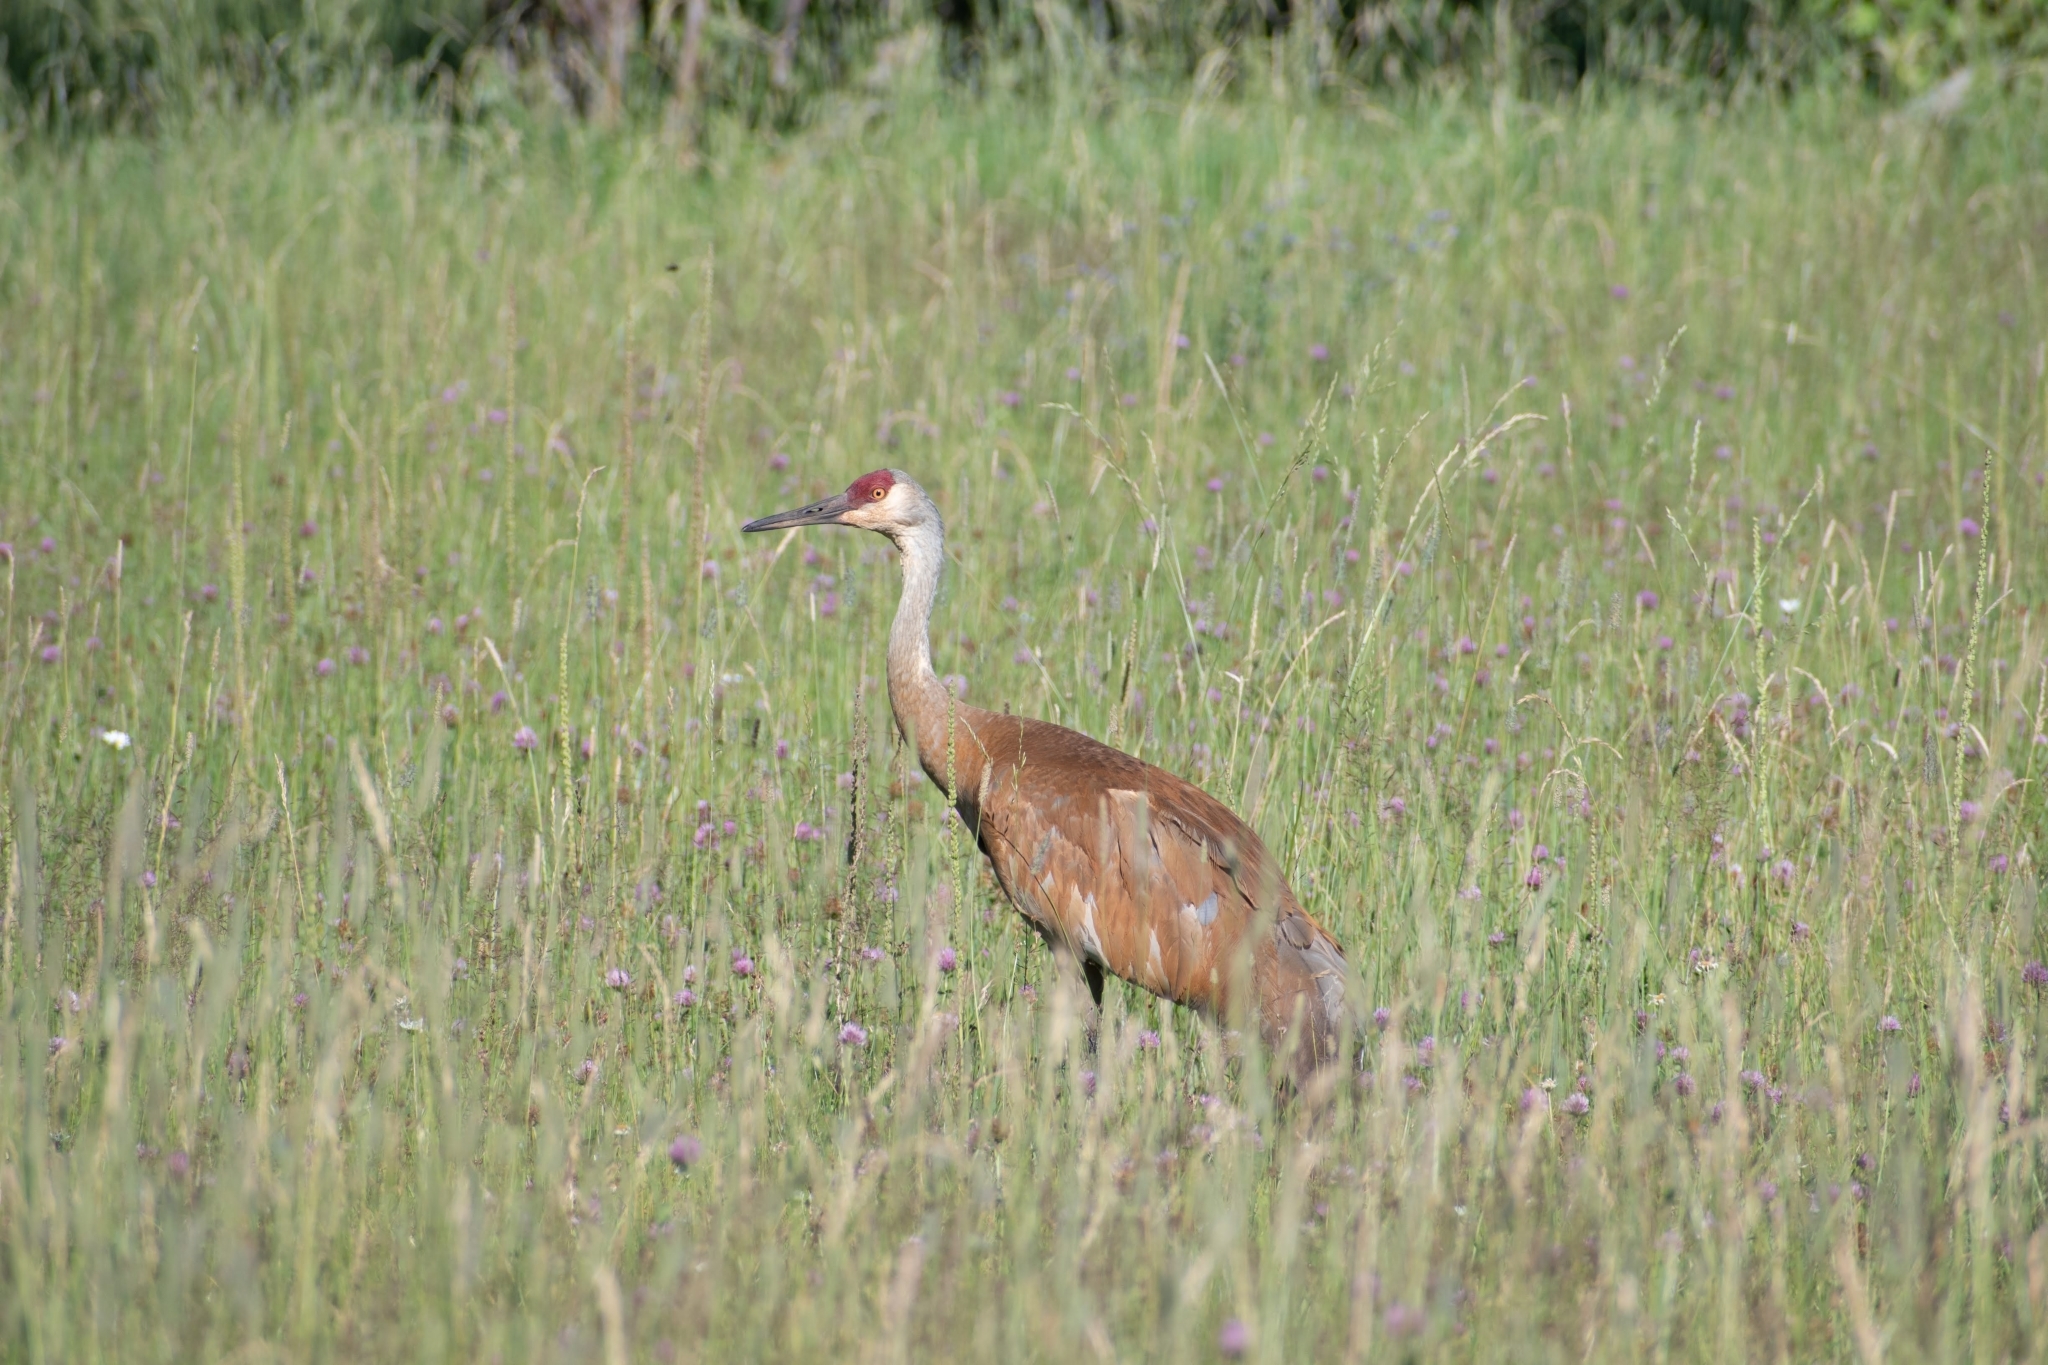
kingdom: Animalia
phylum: Chordata
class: Aves
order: Gruiformes
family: Gruidae
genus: Grus
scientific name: Grus canadensis
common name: Sandhill crane
